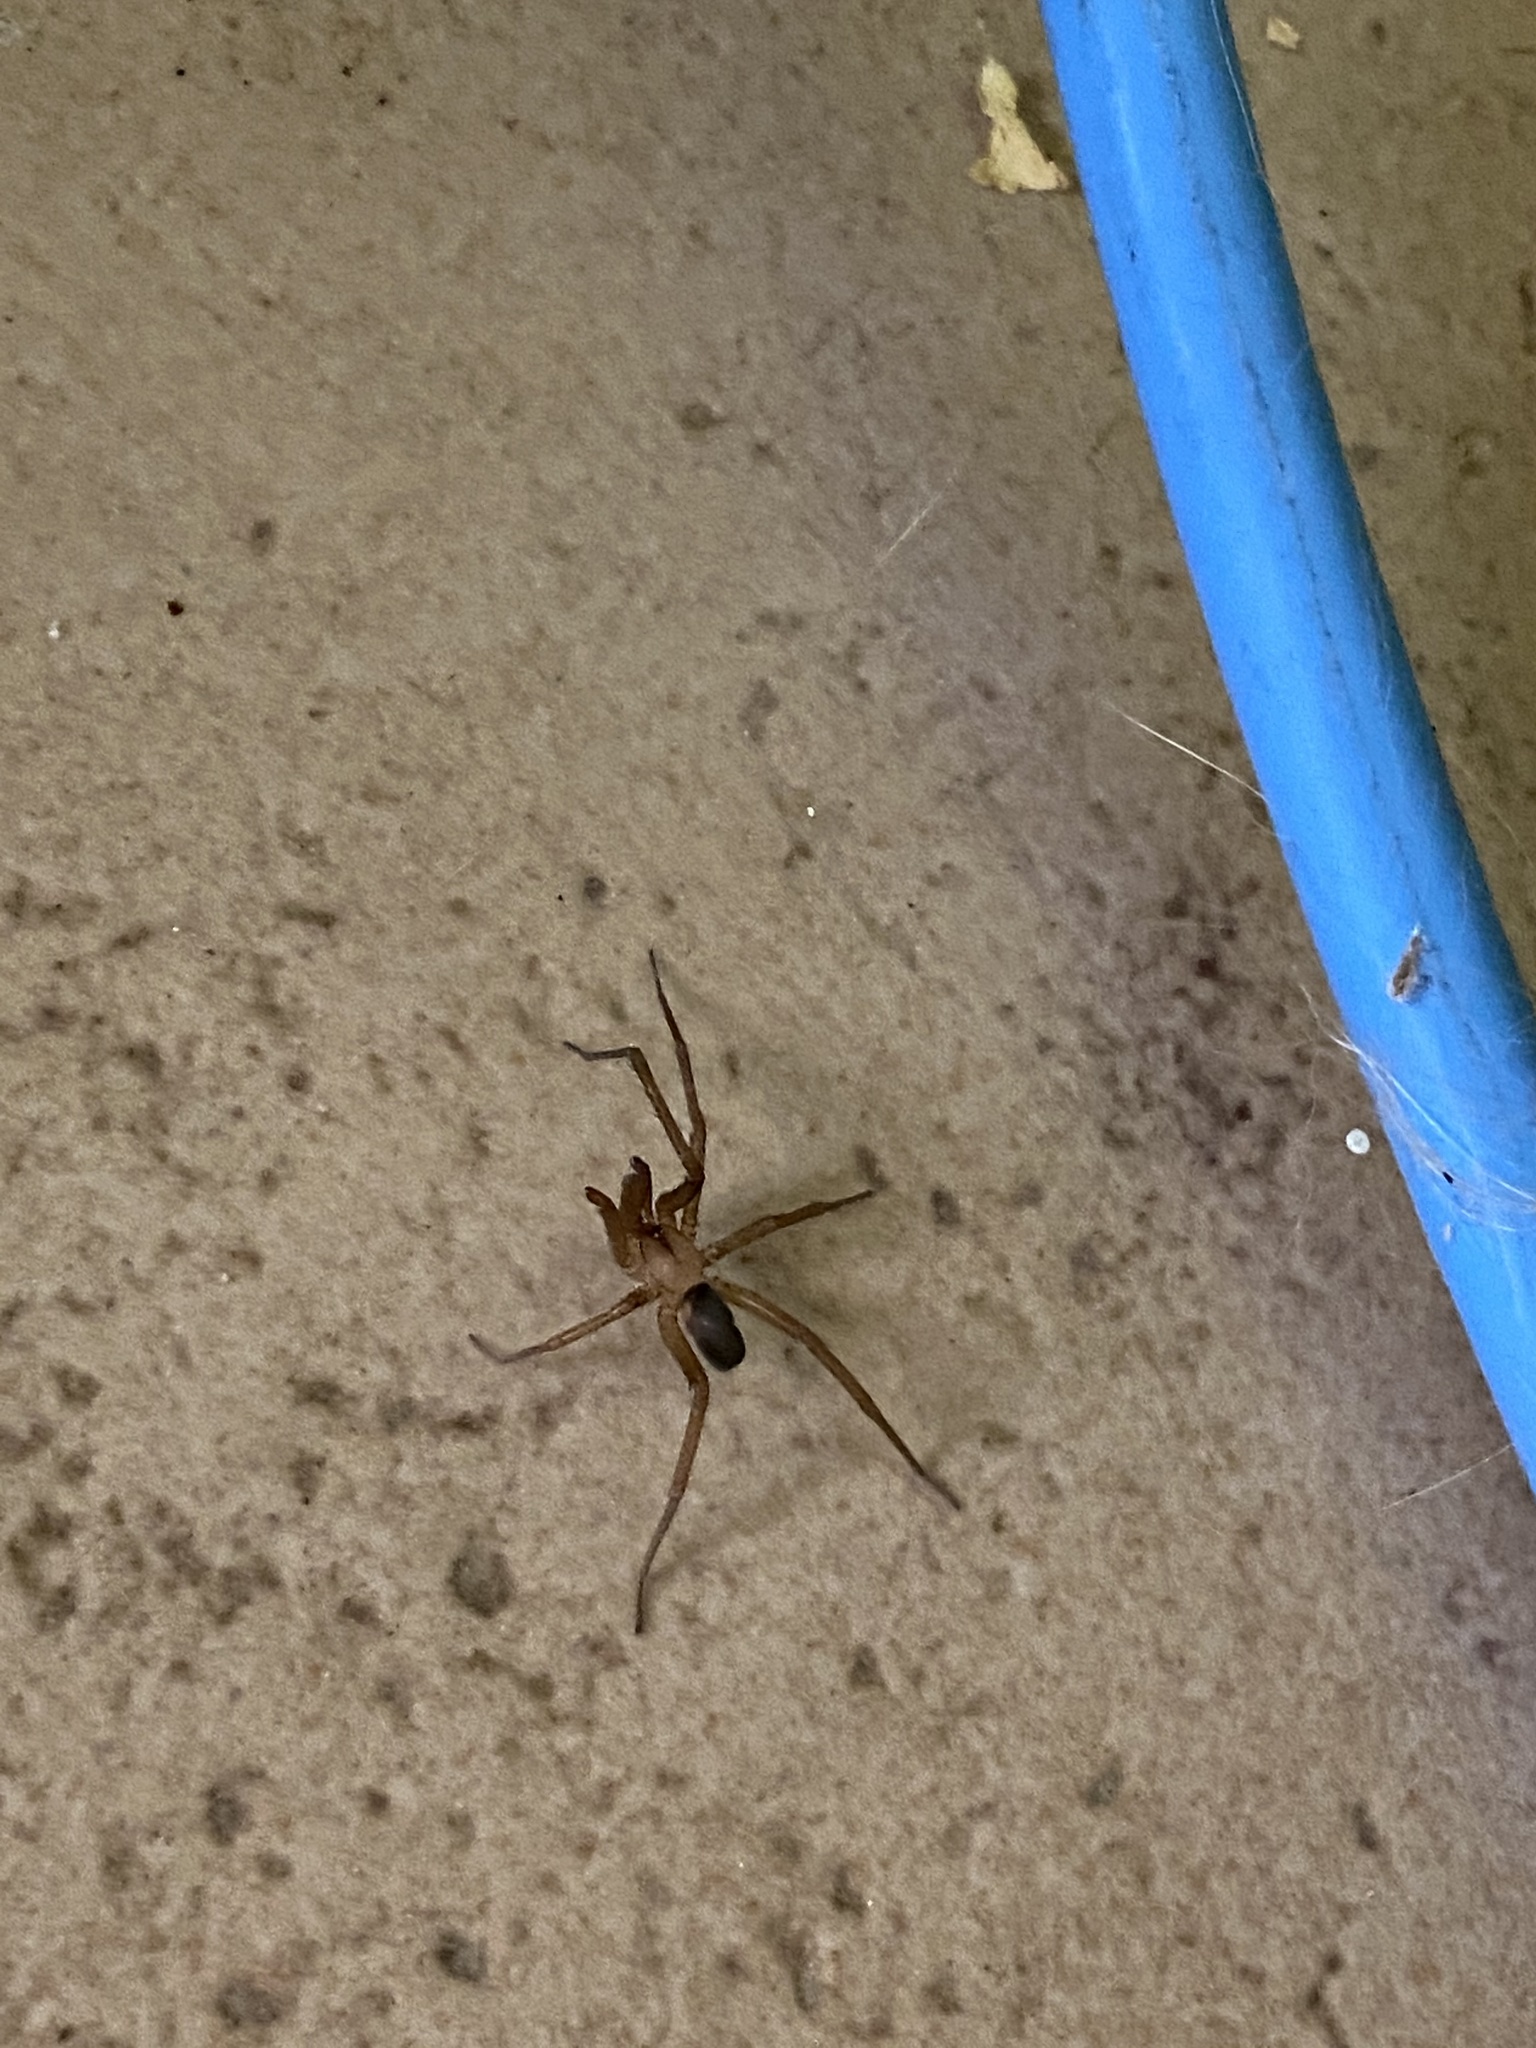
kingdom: Animalia
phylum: Arthropoda
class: Arachnida
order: Araneae
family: Filistatidae
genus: Filistata
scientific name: Filistata insidiatrix
